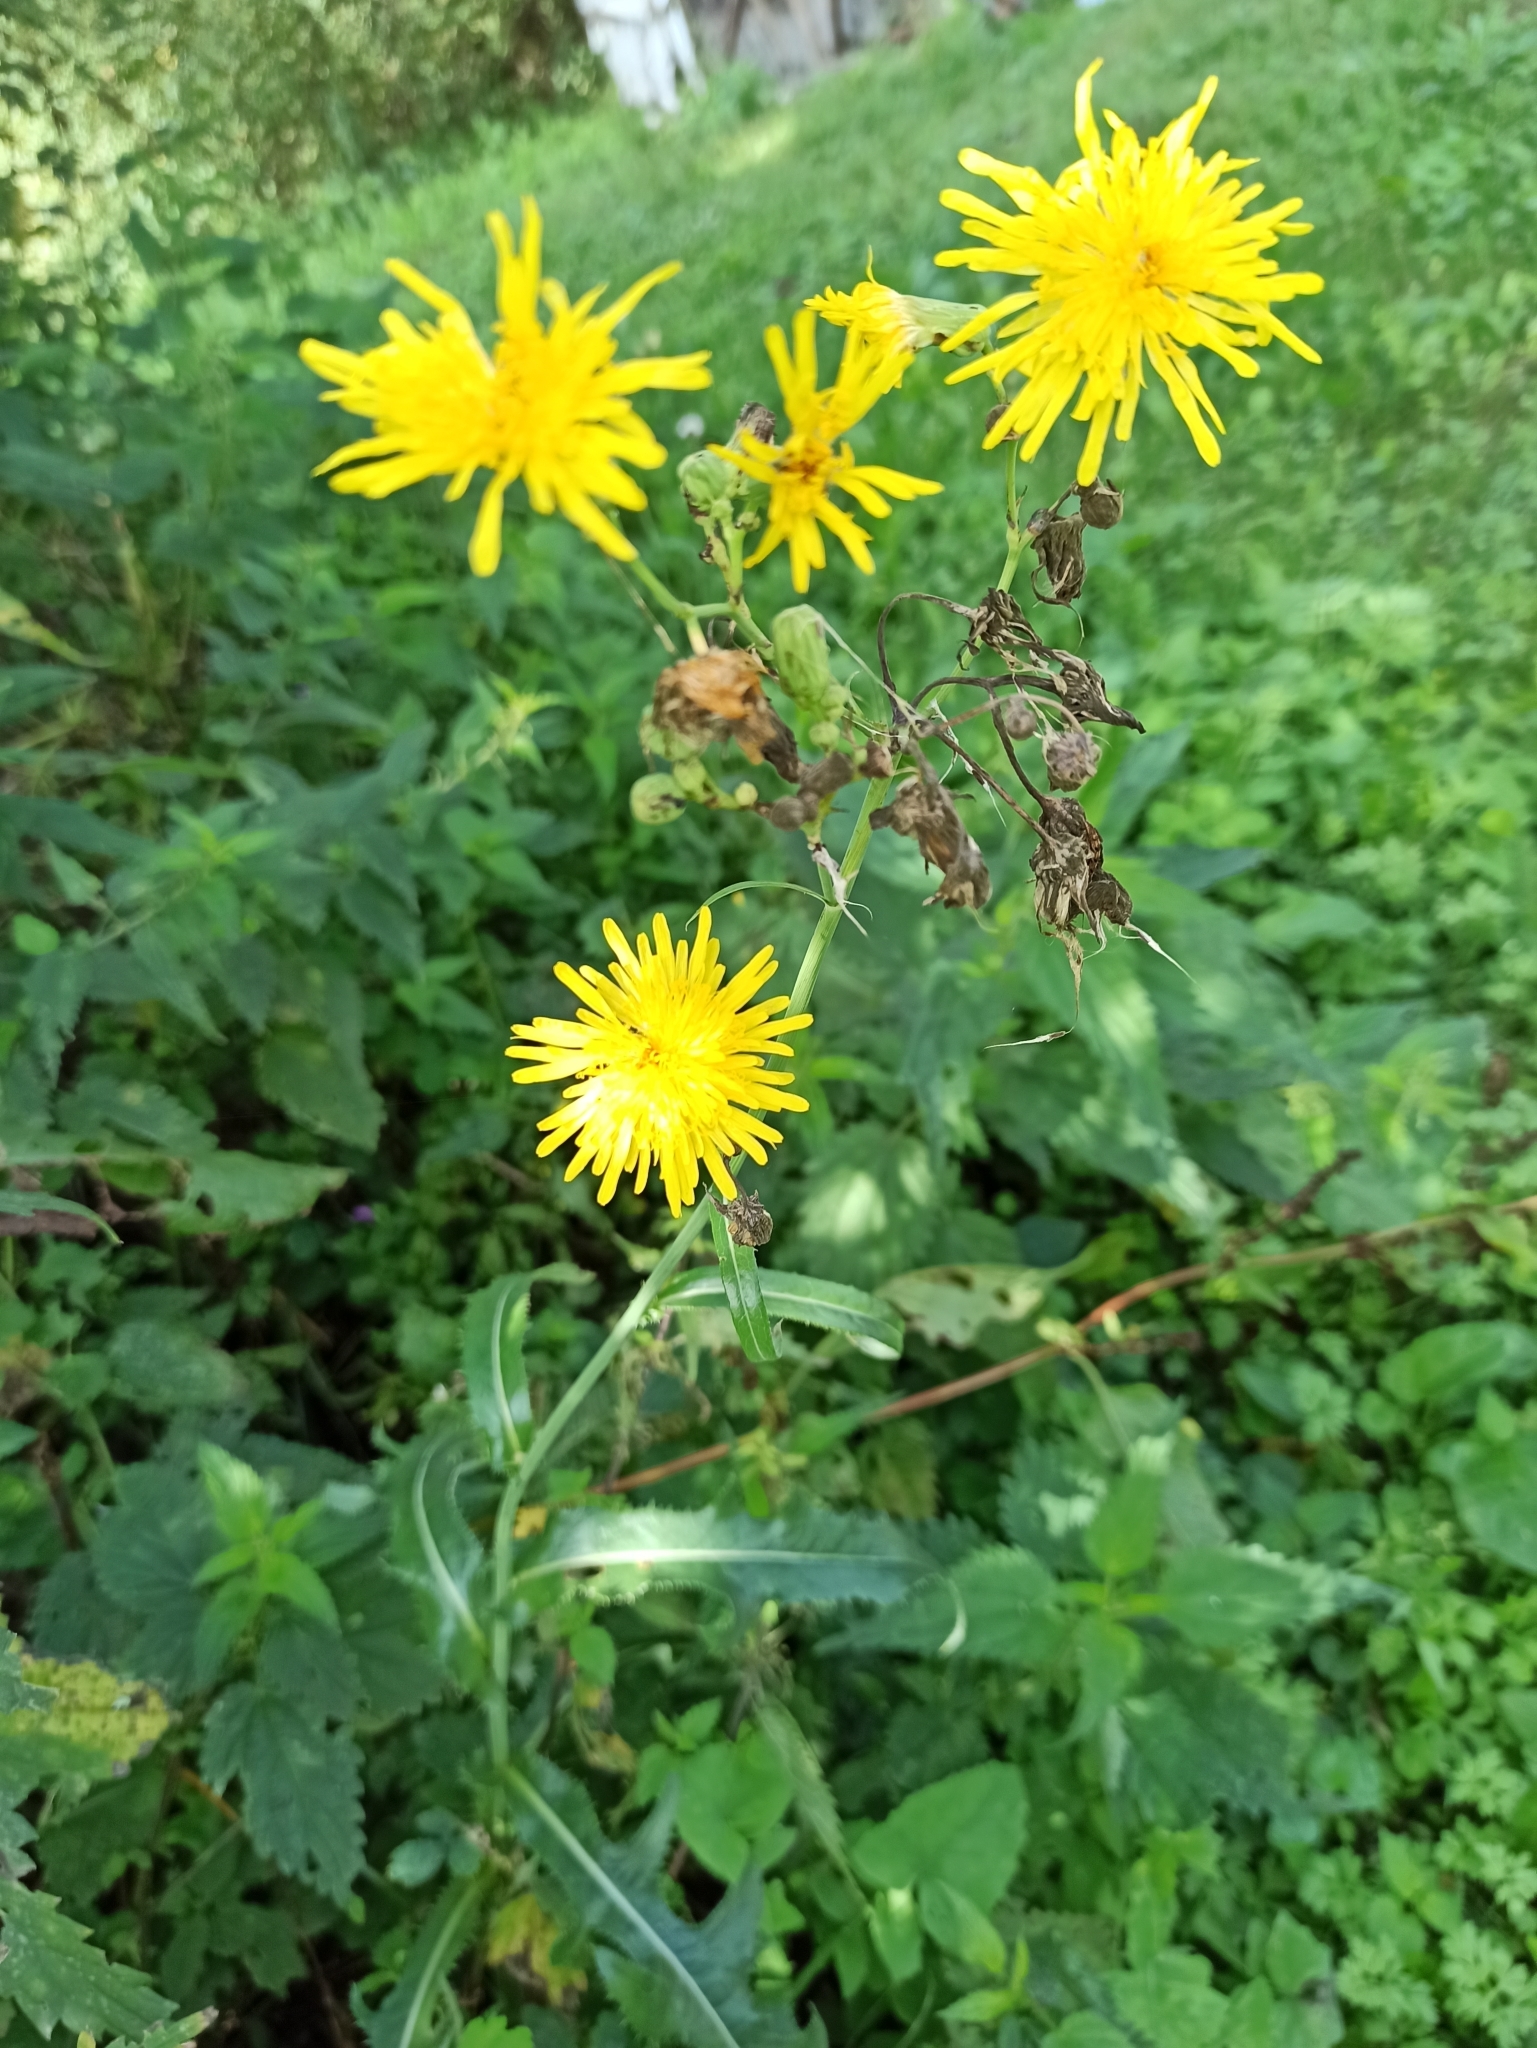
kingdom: Plantae
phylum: Tracheophyta
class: Magnoliopsida
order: Asterales
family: Asteraceae
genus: Sonchus
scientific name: Sonchus arvensis
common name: Perennial sow-thistle
